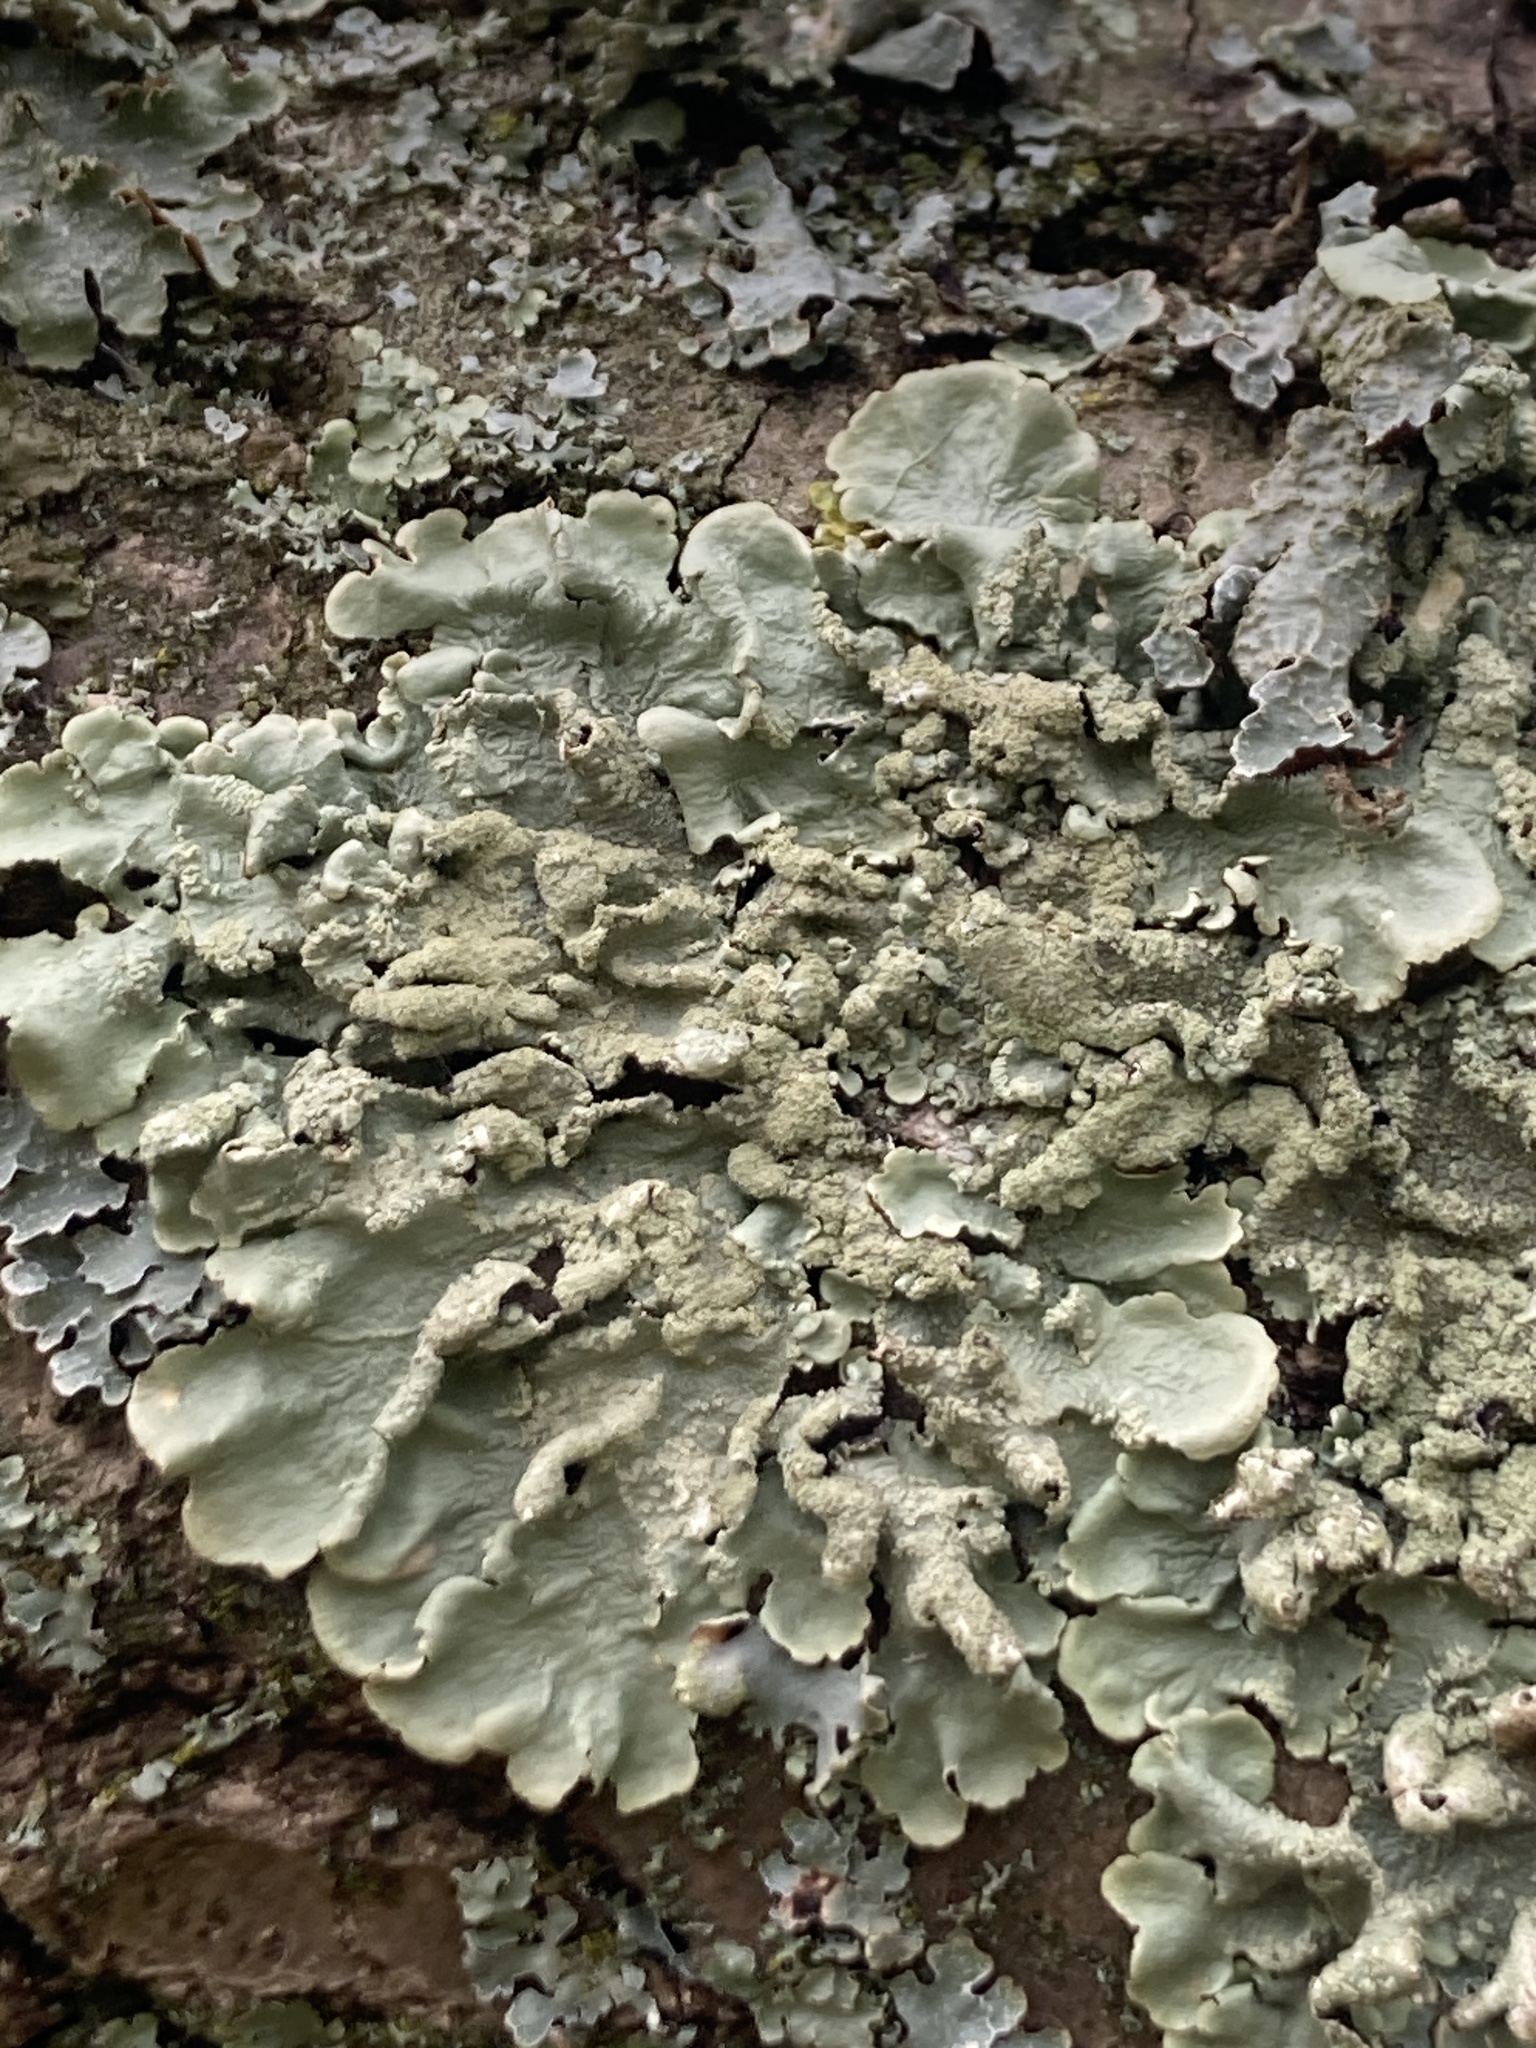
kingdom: Fungi
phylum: Ascomycota
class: Lecanoromycetes
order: Lecanorales
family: Parmeliaceae
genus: Flavoparmelia
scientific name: Flavoparmelia caperata
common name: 40-mile per hour lichen
